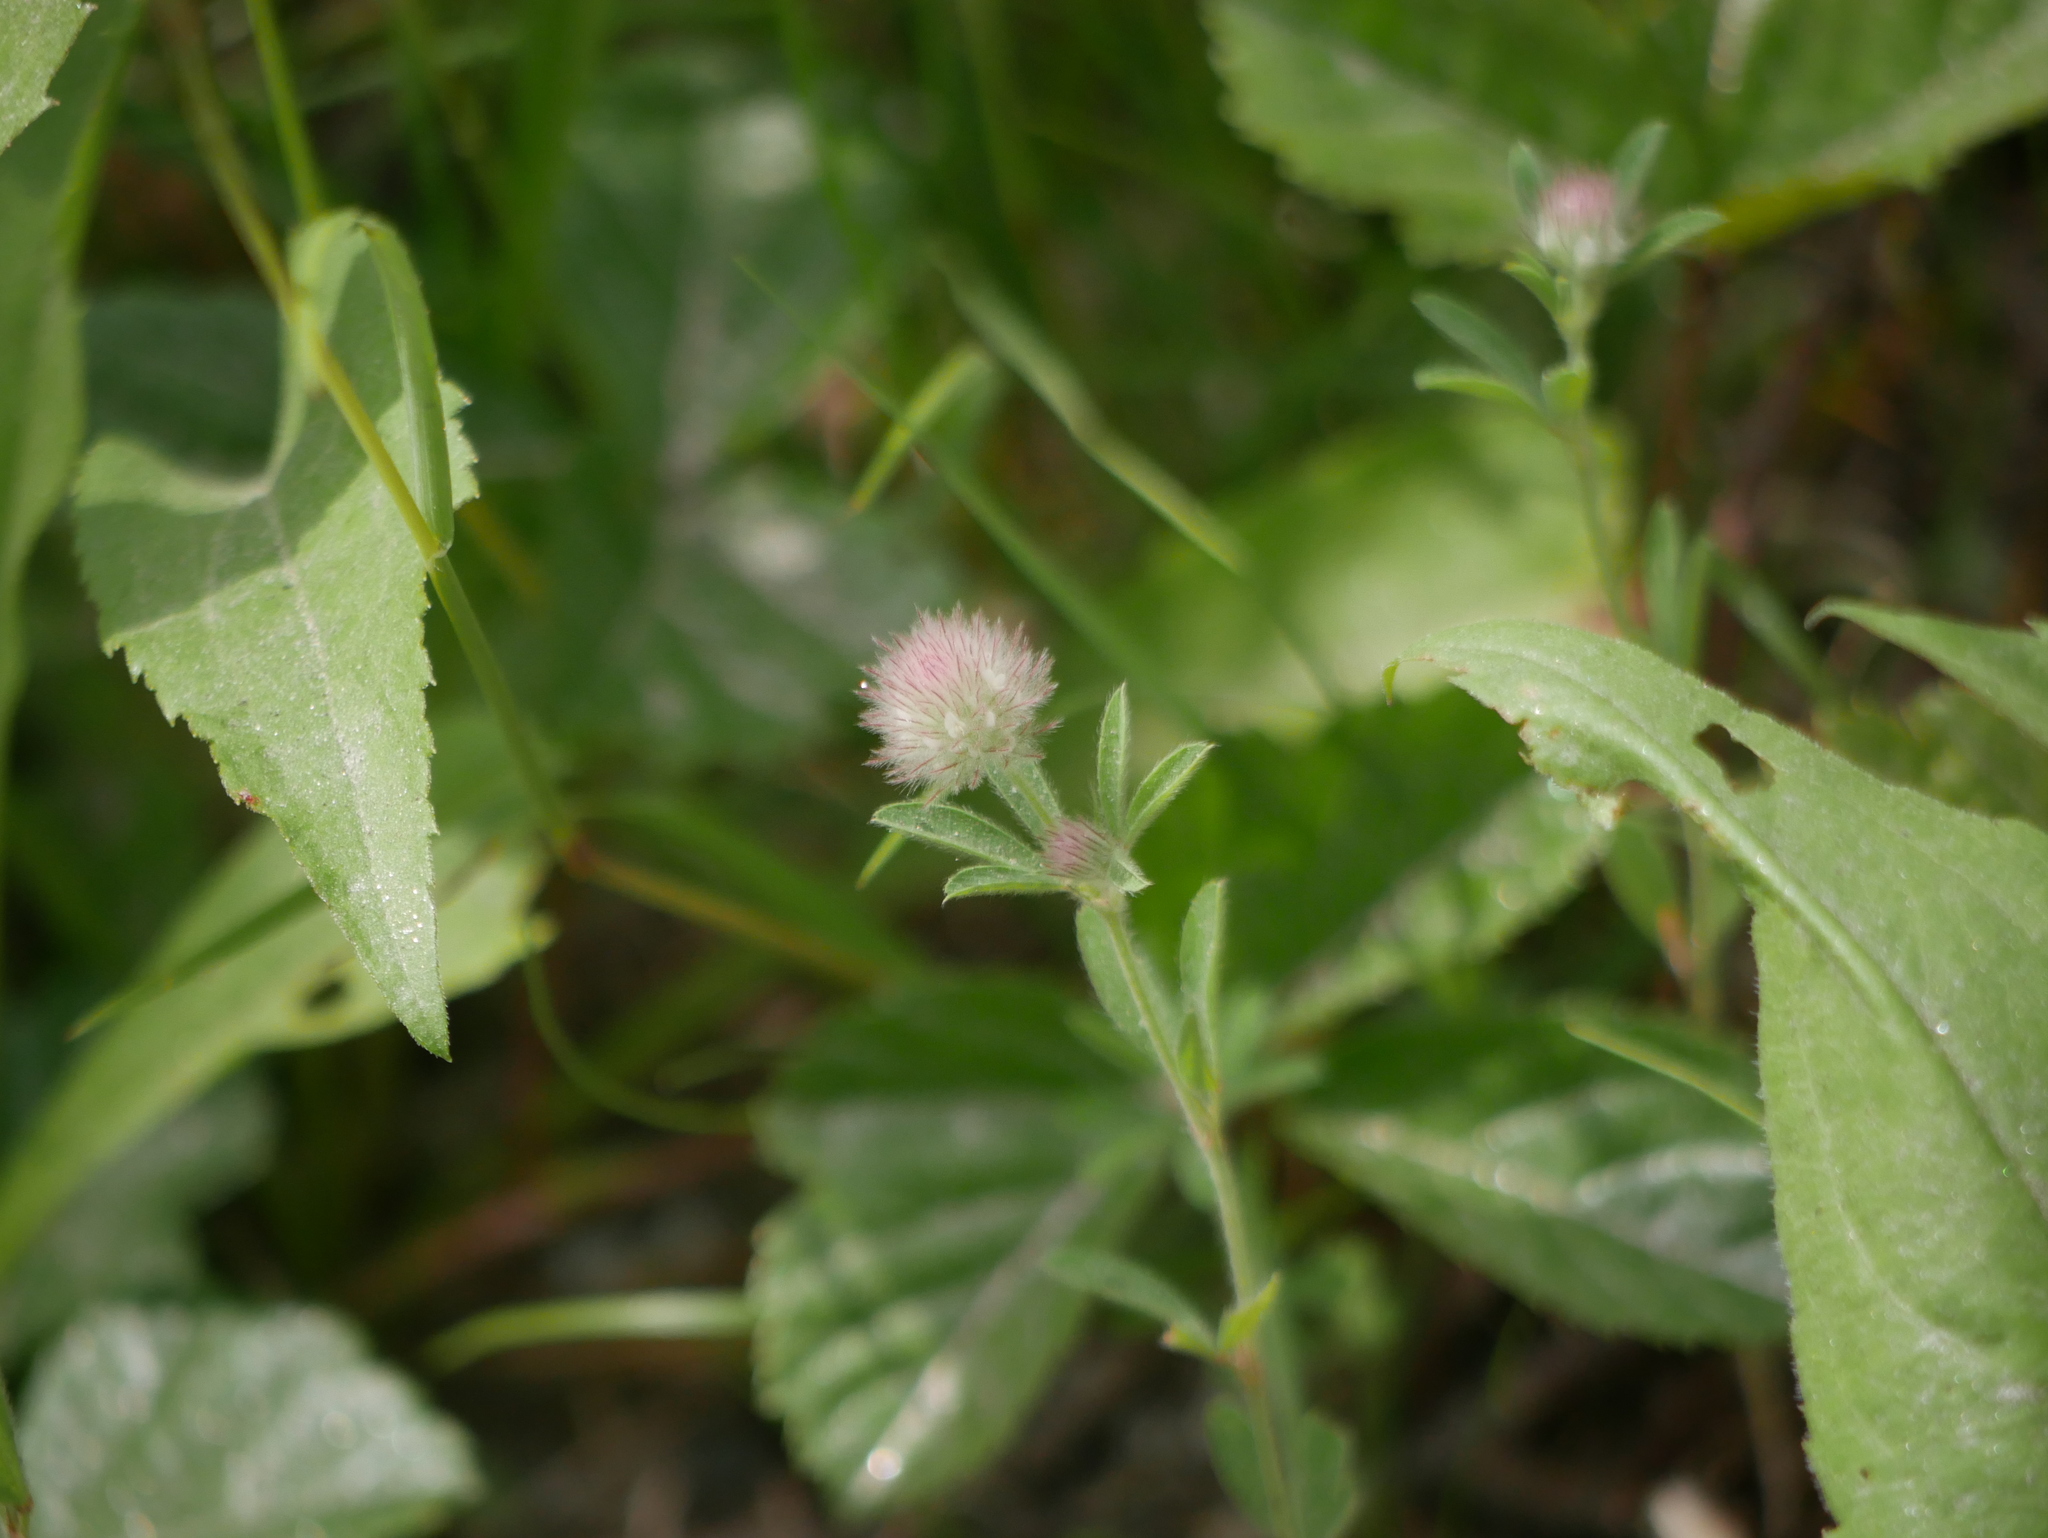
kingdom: Plantae
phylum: Tracheophyta
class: Magnoliopsida
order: Fabales
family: Fabaceae
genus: Trifolium
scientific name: Trifolium arvense
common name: Hare's-foot clover
